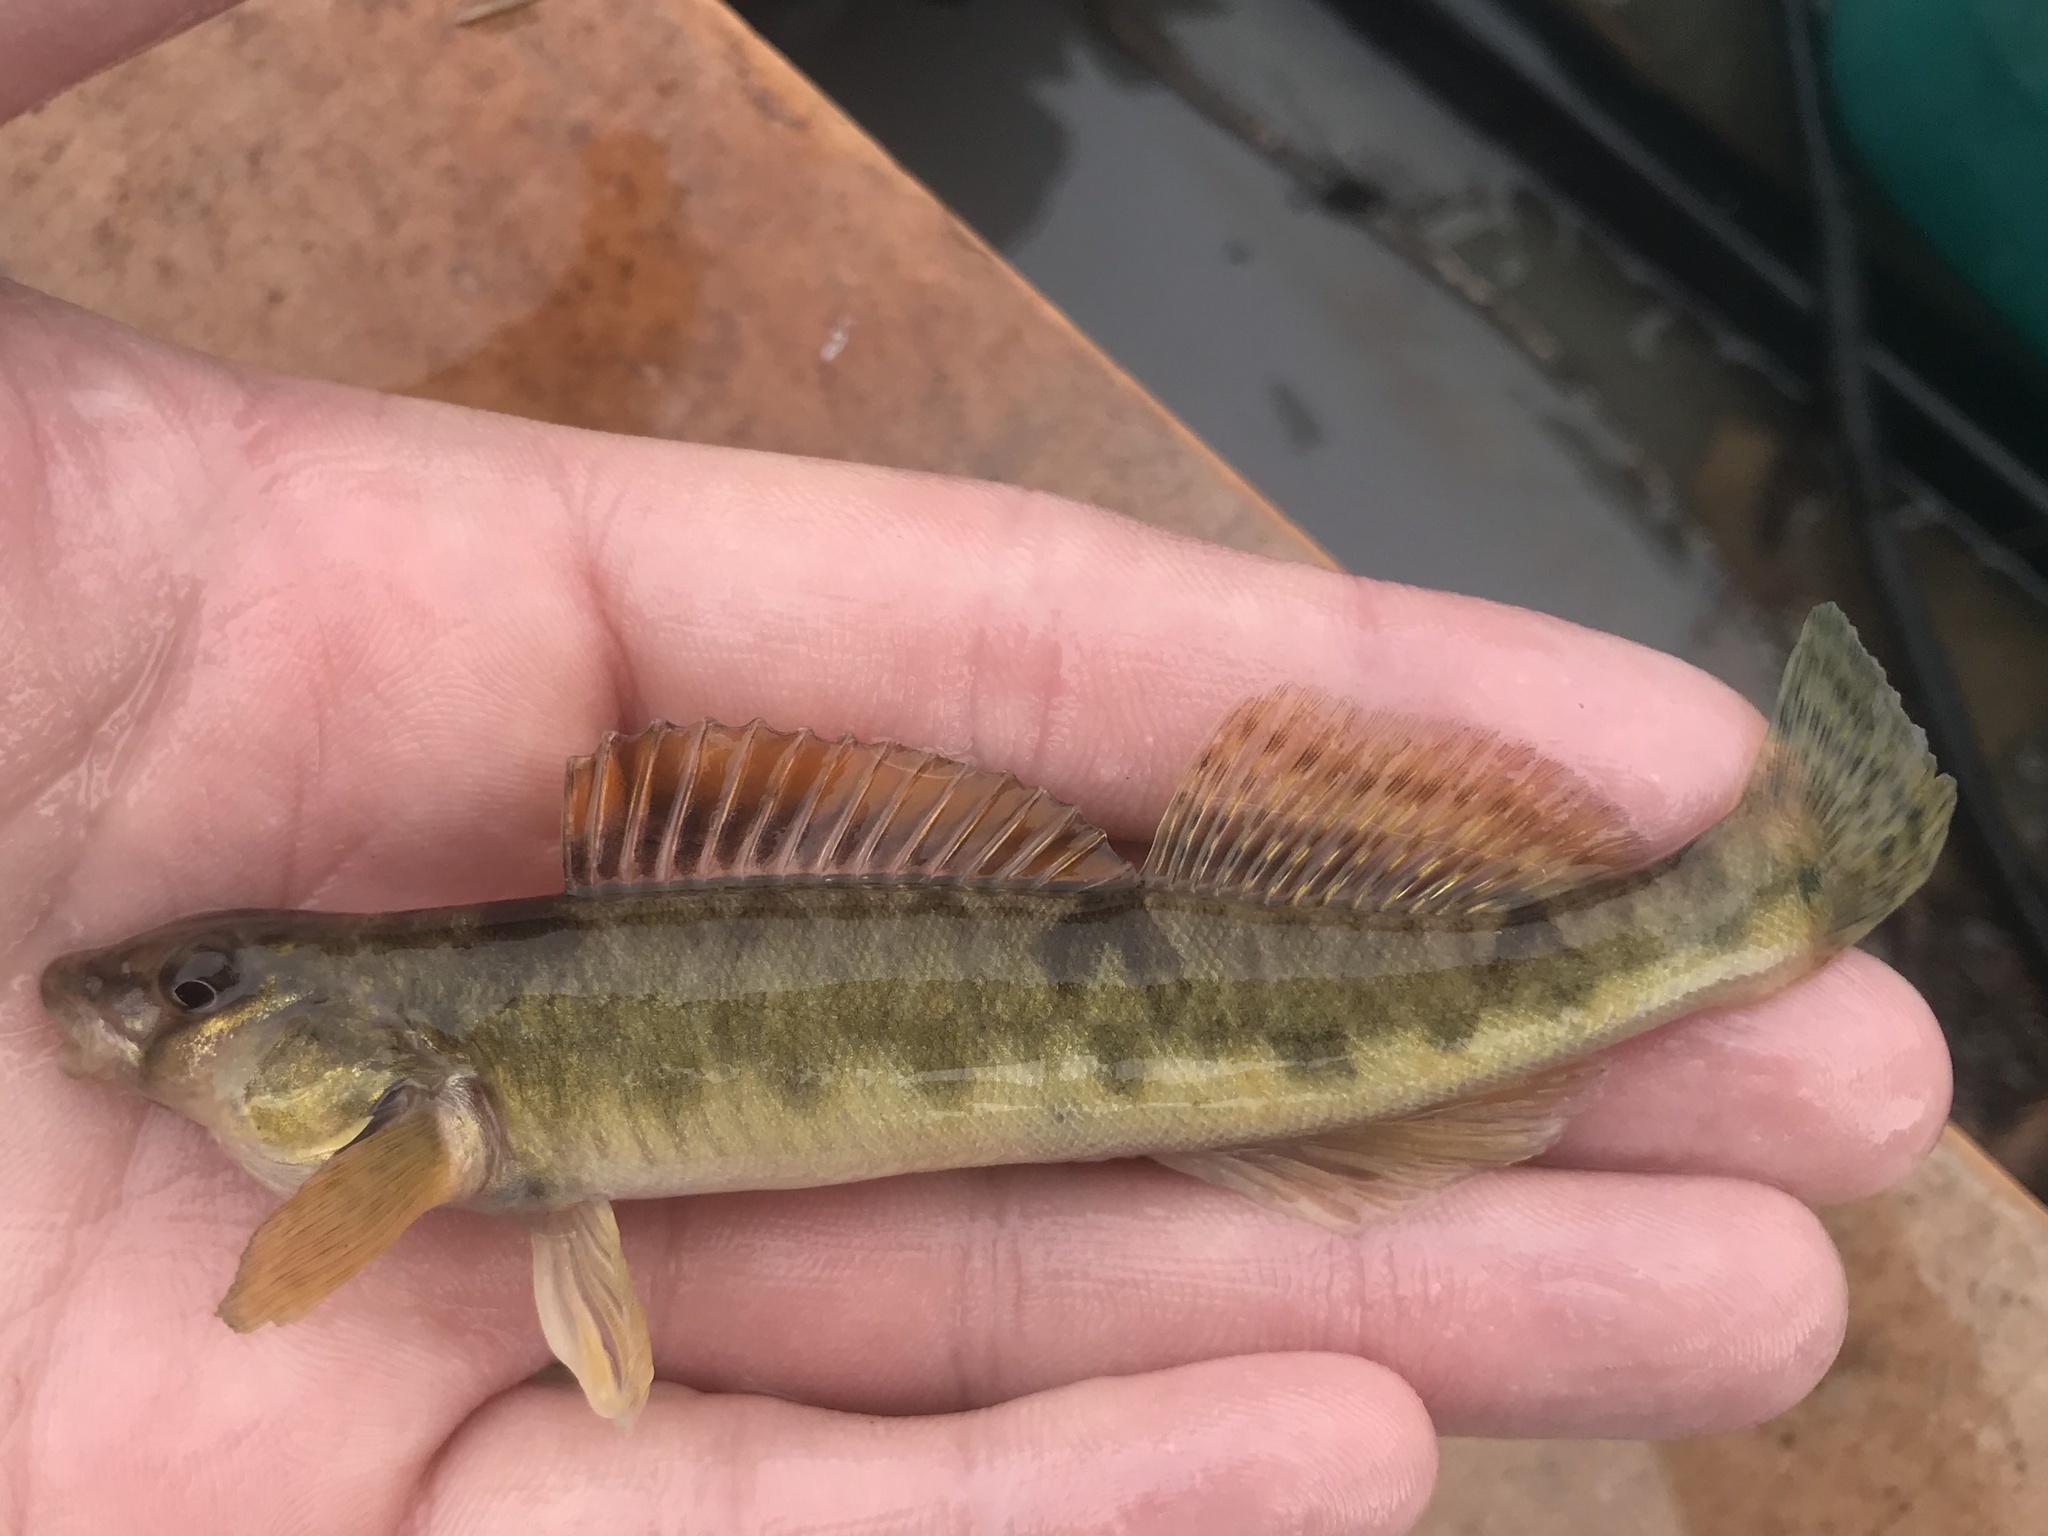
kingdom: Animalia
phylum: Chordata
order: Perciformes
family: Percidae
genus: Percina
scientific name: Percina carbonaria
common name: Texas logperch
